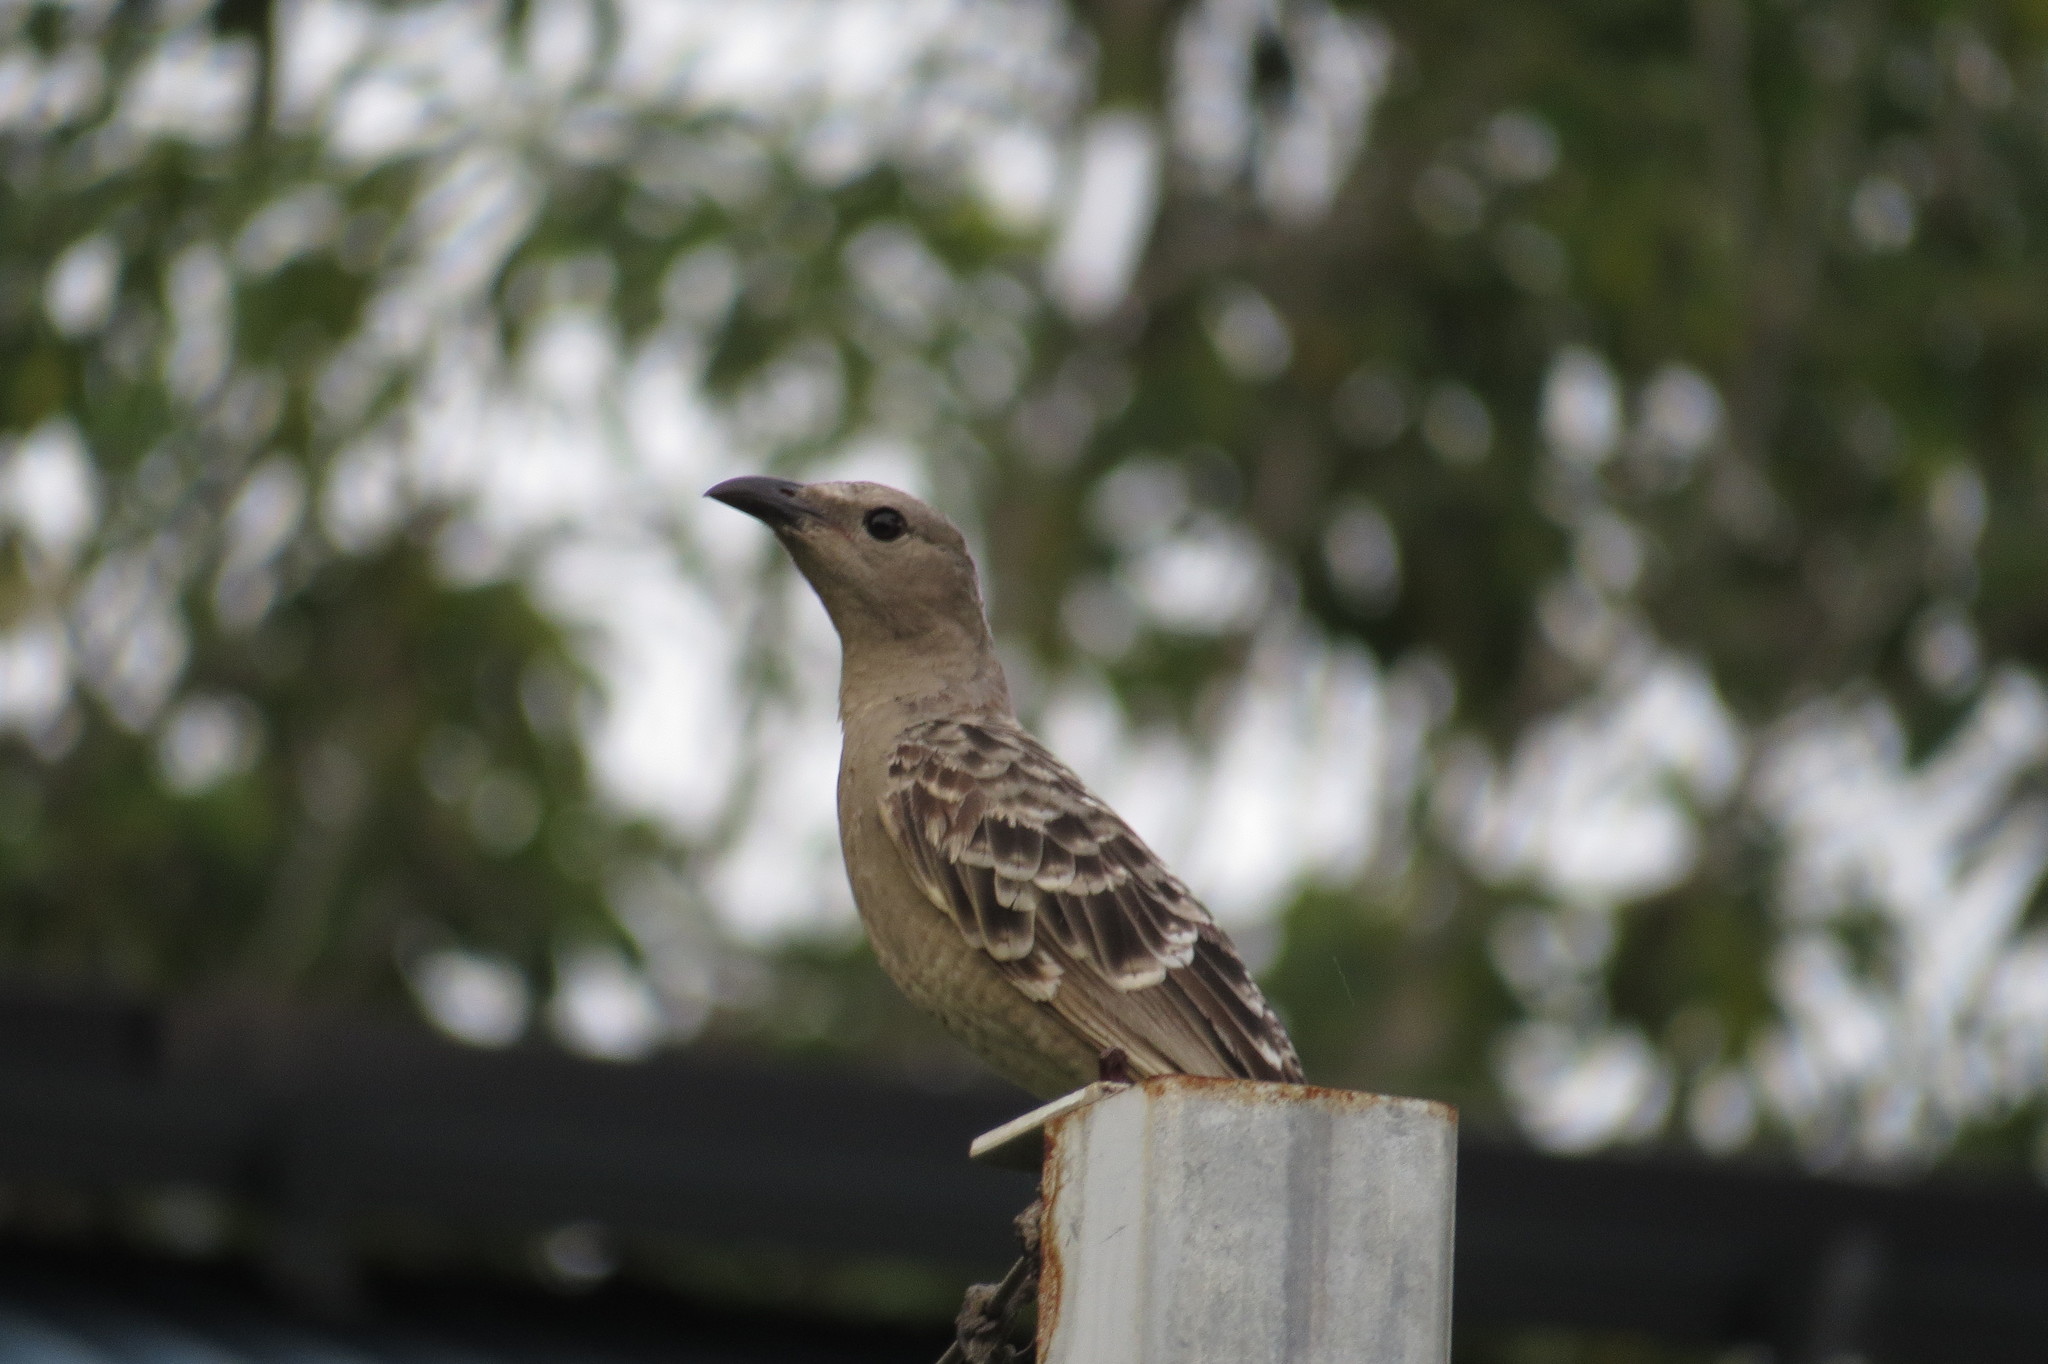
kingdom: Animalia
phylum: Chordata
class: Aves
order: Passeriformes
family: Ptilonorhynchidae
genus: Chlamydera
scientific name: Chlamydera nuchalis
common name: Great bowerbird
